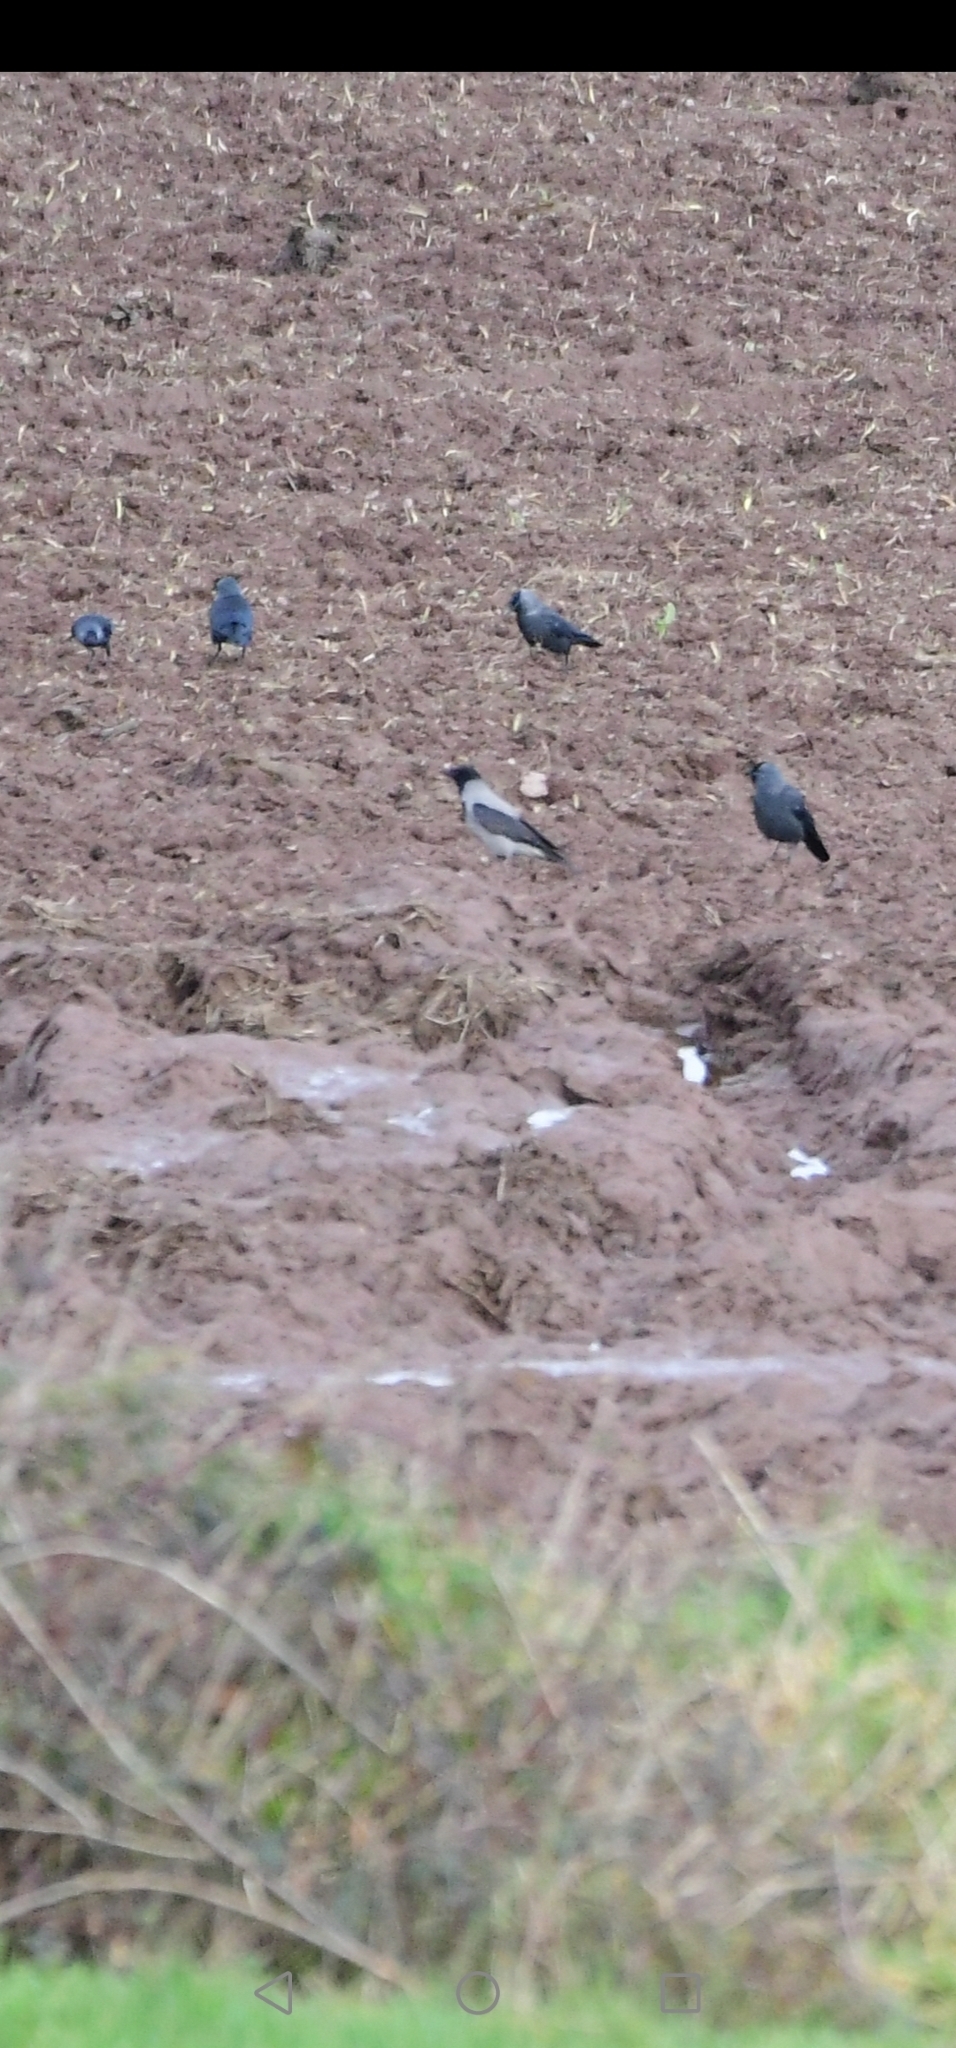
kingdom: Animalia
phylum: Chordata
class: Aves
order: Passeriformes
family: Corvidae
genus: Coloeus
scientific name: Coloeus monedula
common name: Western jackdaw
